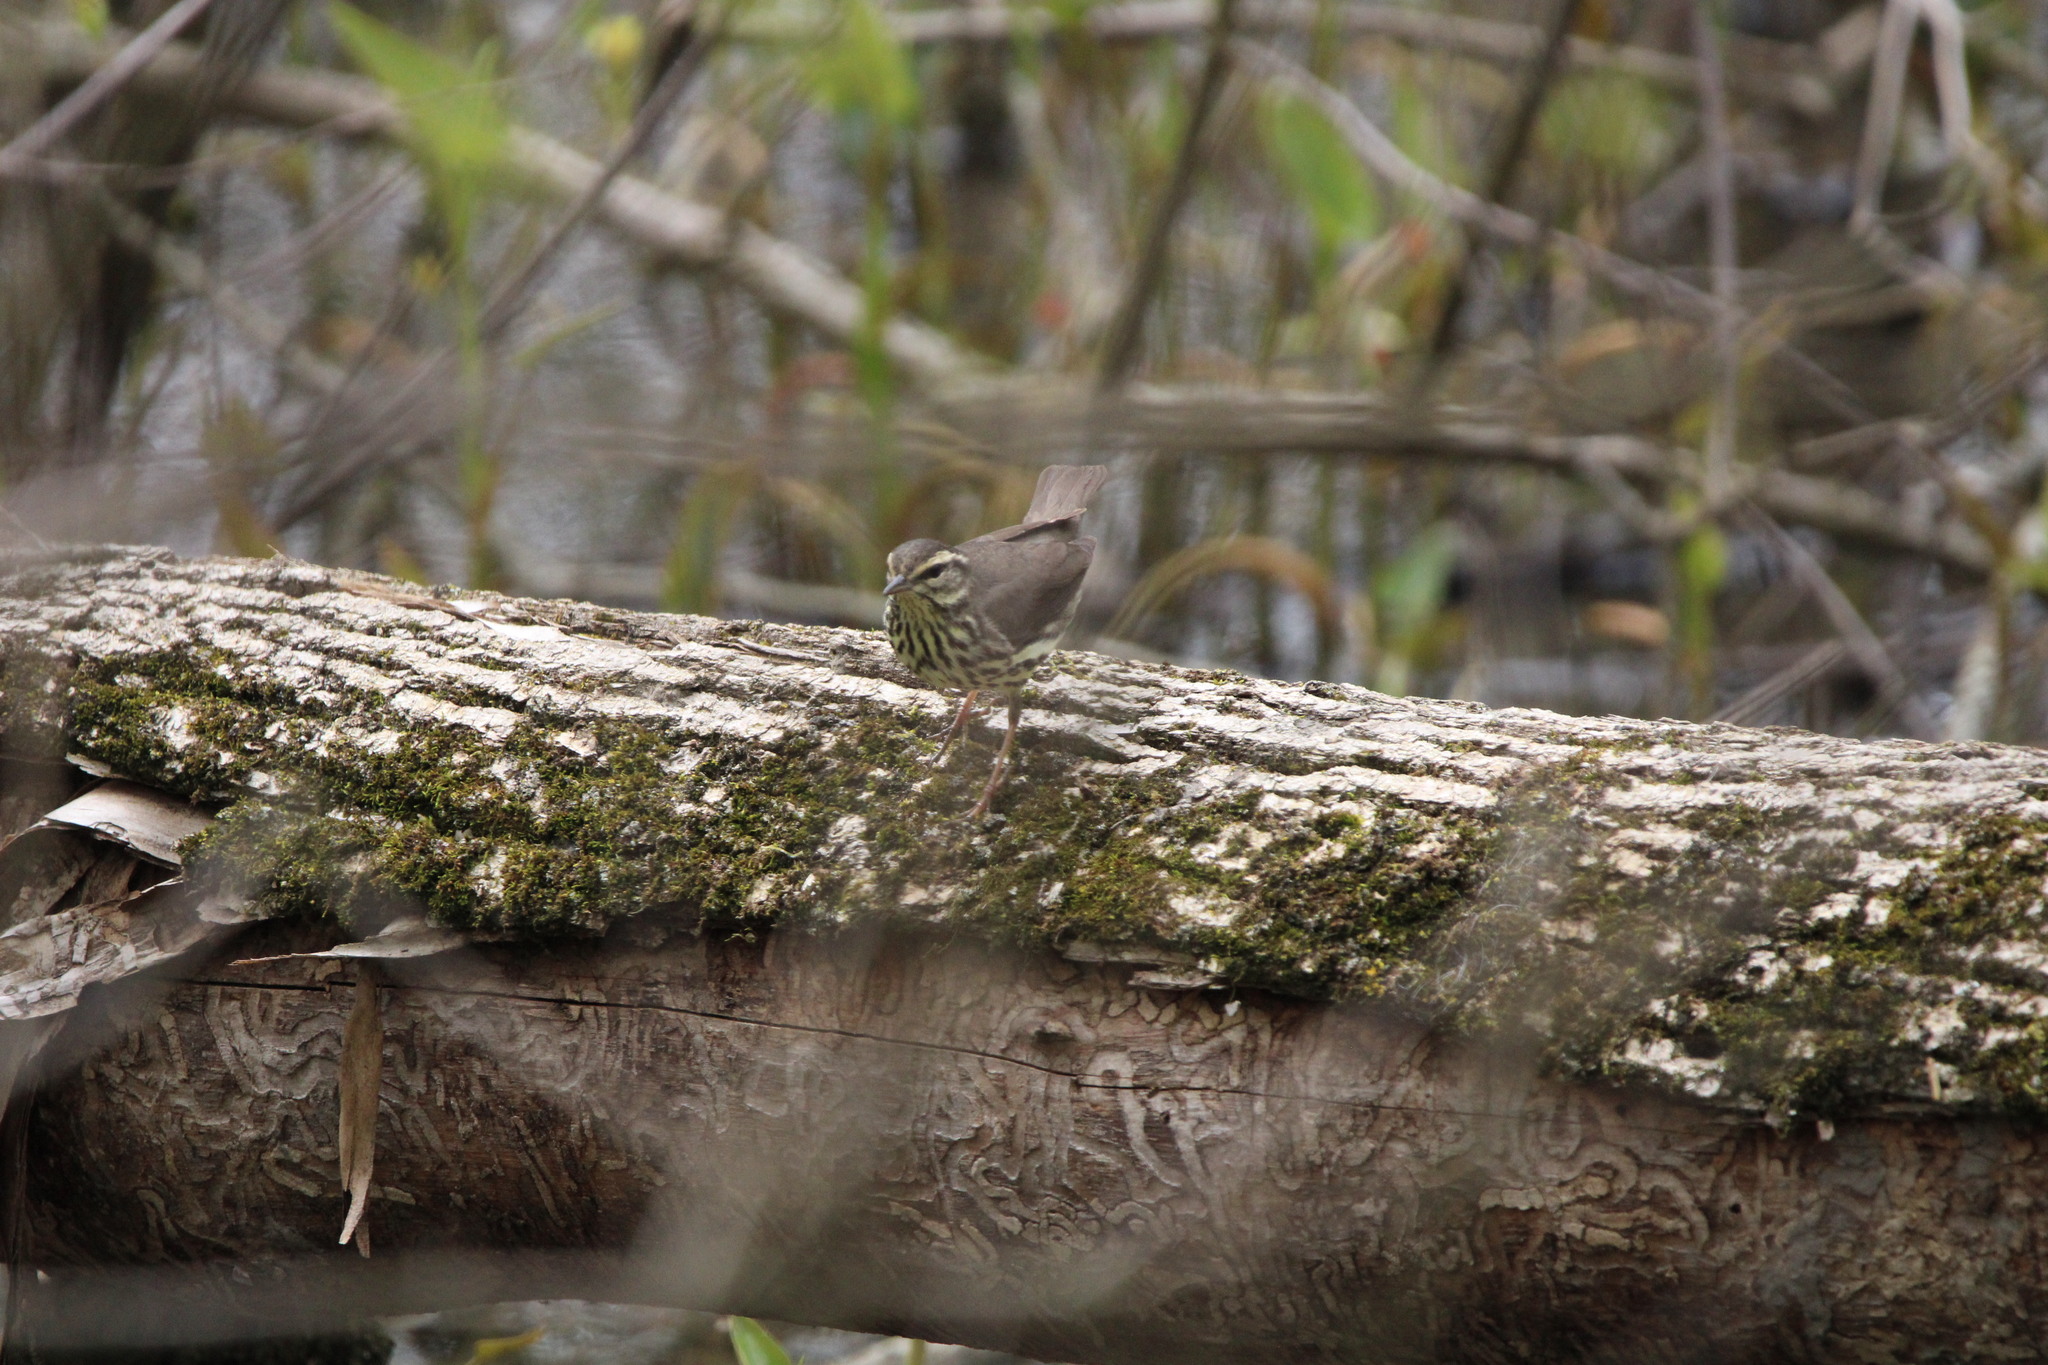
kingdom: Animalia
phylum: Chordata
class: Aves
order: Passeriformes
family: Parulidae
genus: Parkesia
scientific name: Parkesia noveboracensis
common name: Northern waterthrush
